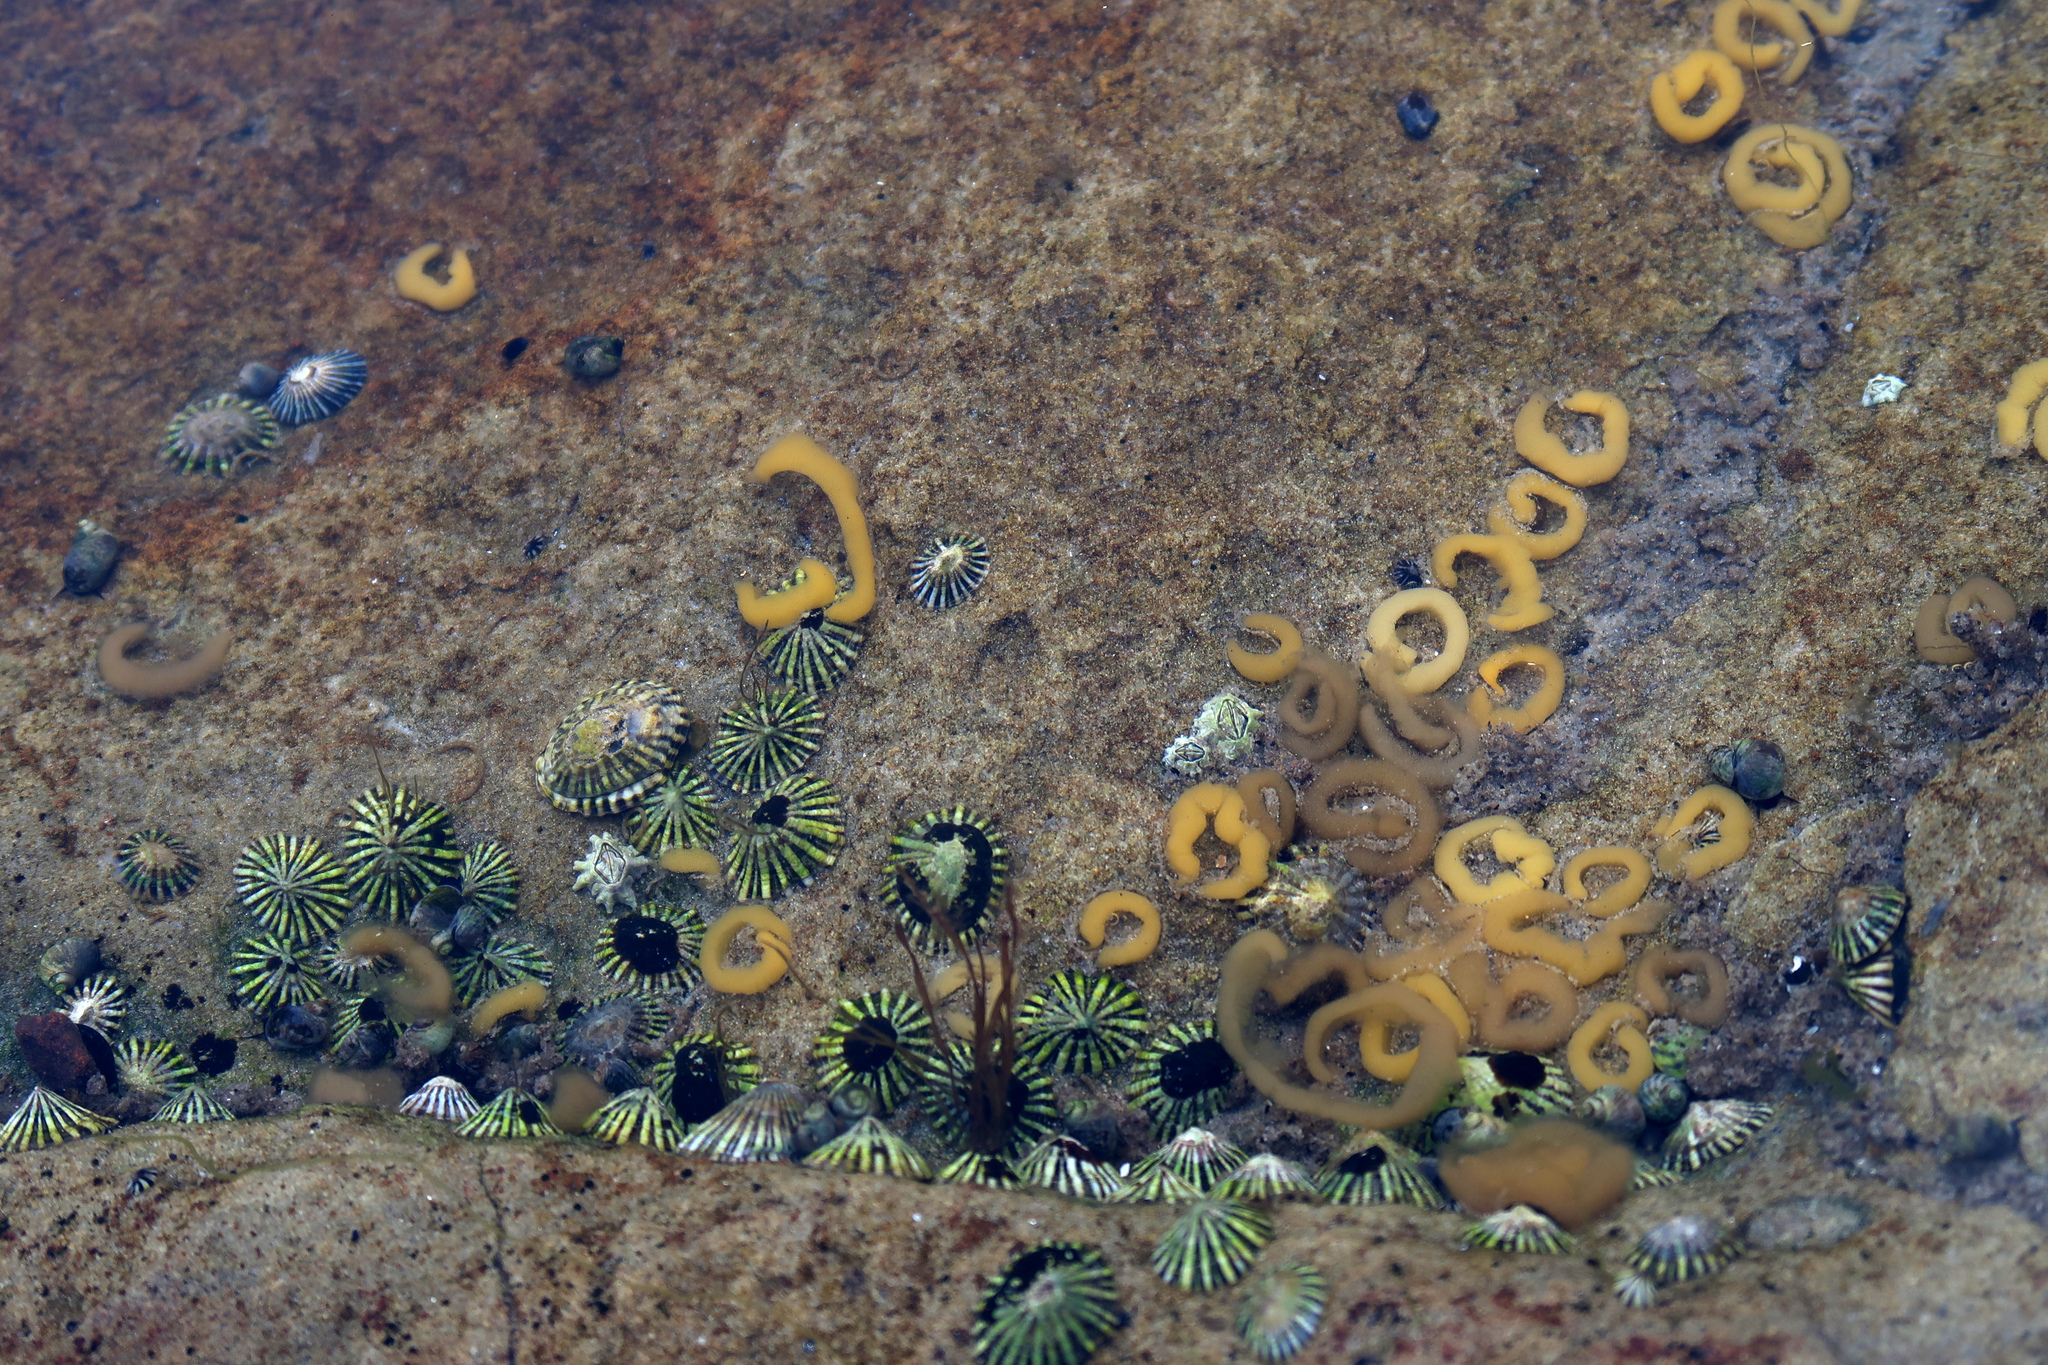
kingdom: Animalia
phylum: Mollusca
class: Gastropoda
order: Siphonariida
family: Siphonariidae
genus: Siphonaria
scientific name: Siphonaria diemenensis
